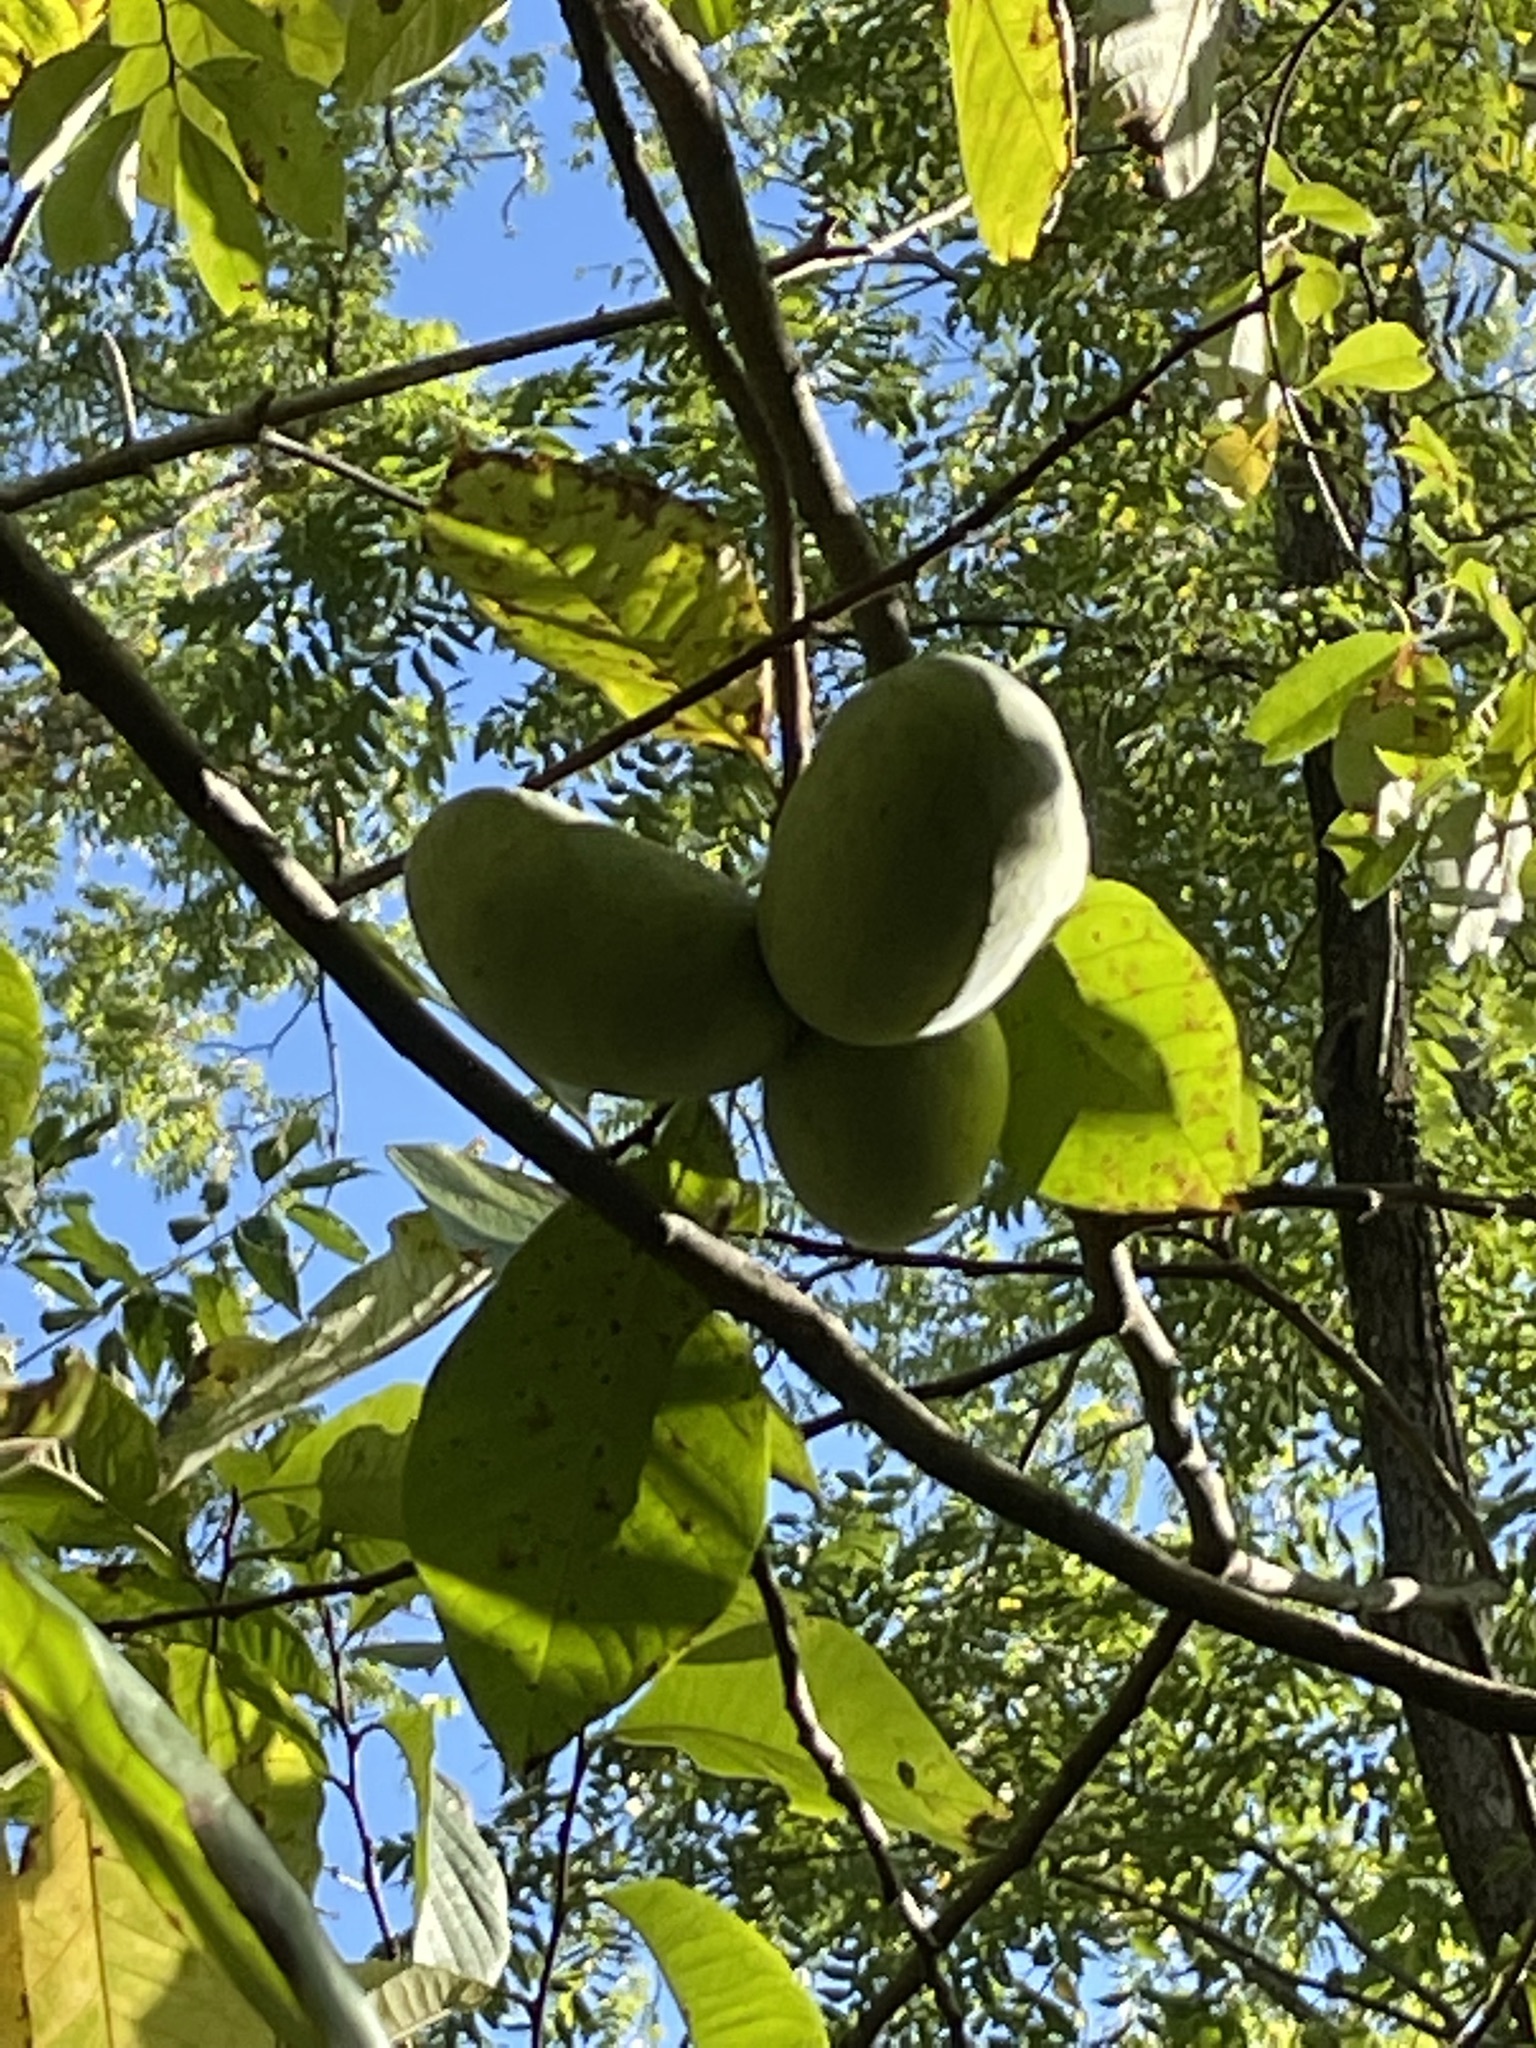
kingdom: Plantae
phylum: Tracheophyta
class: Magnoliopsida
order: Magnoliales
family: Annonaceae
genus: Asimina
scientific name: Asimina triloba
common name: Dog-banana
